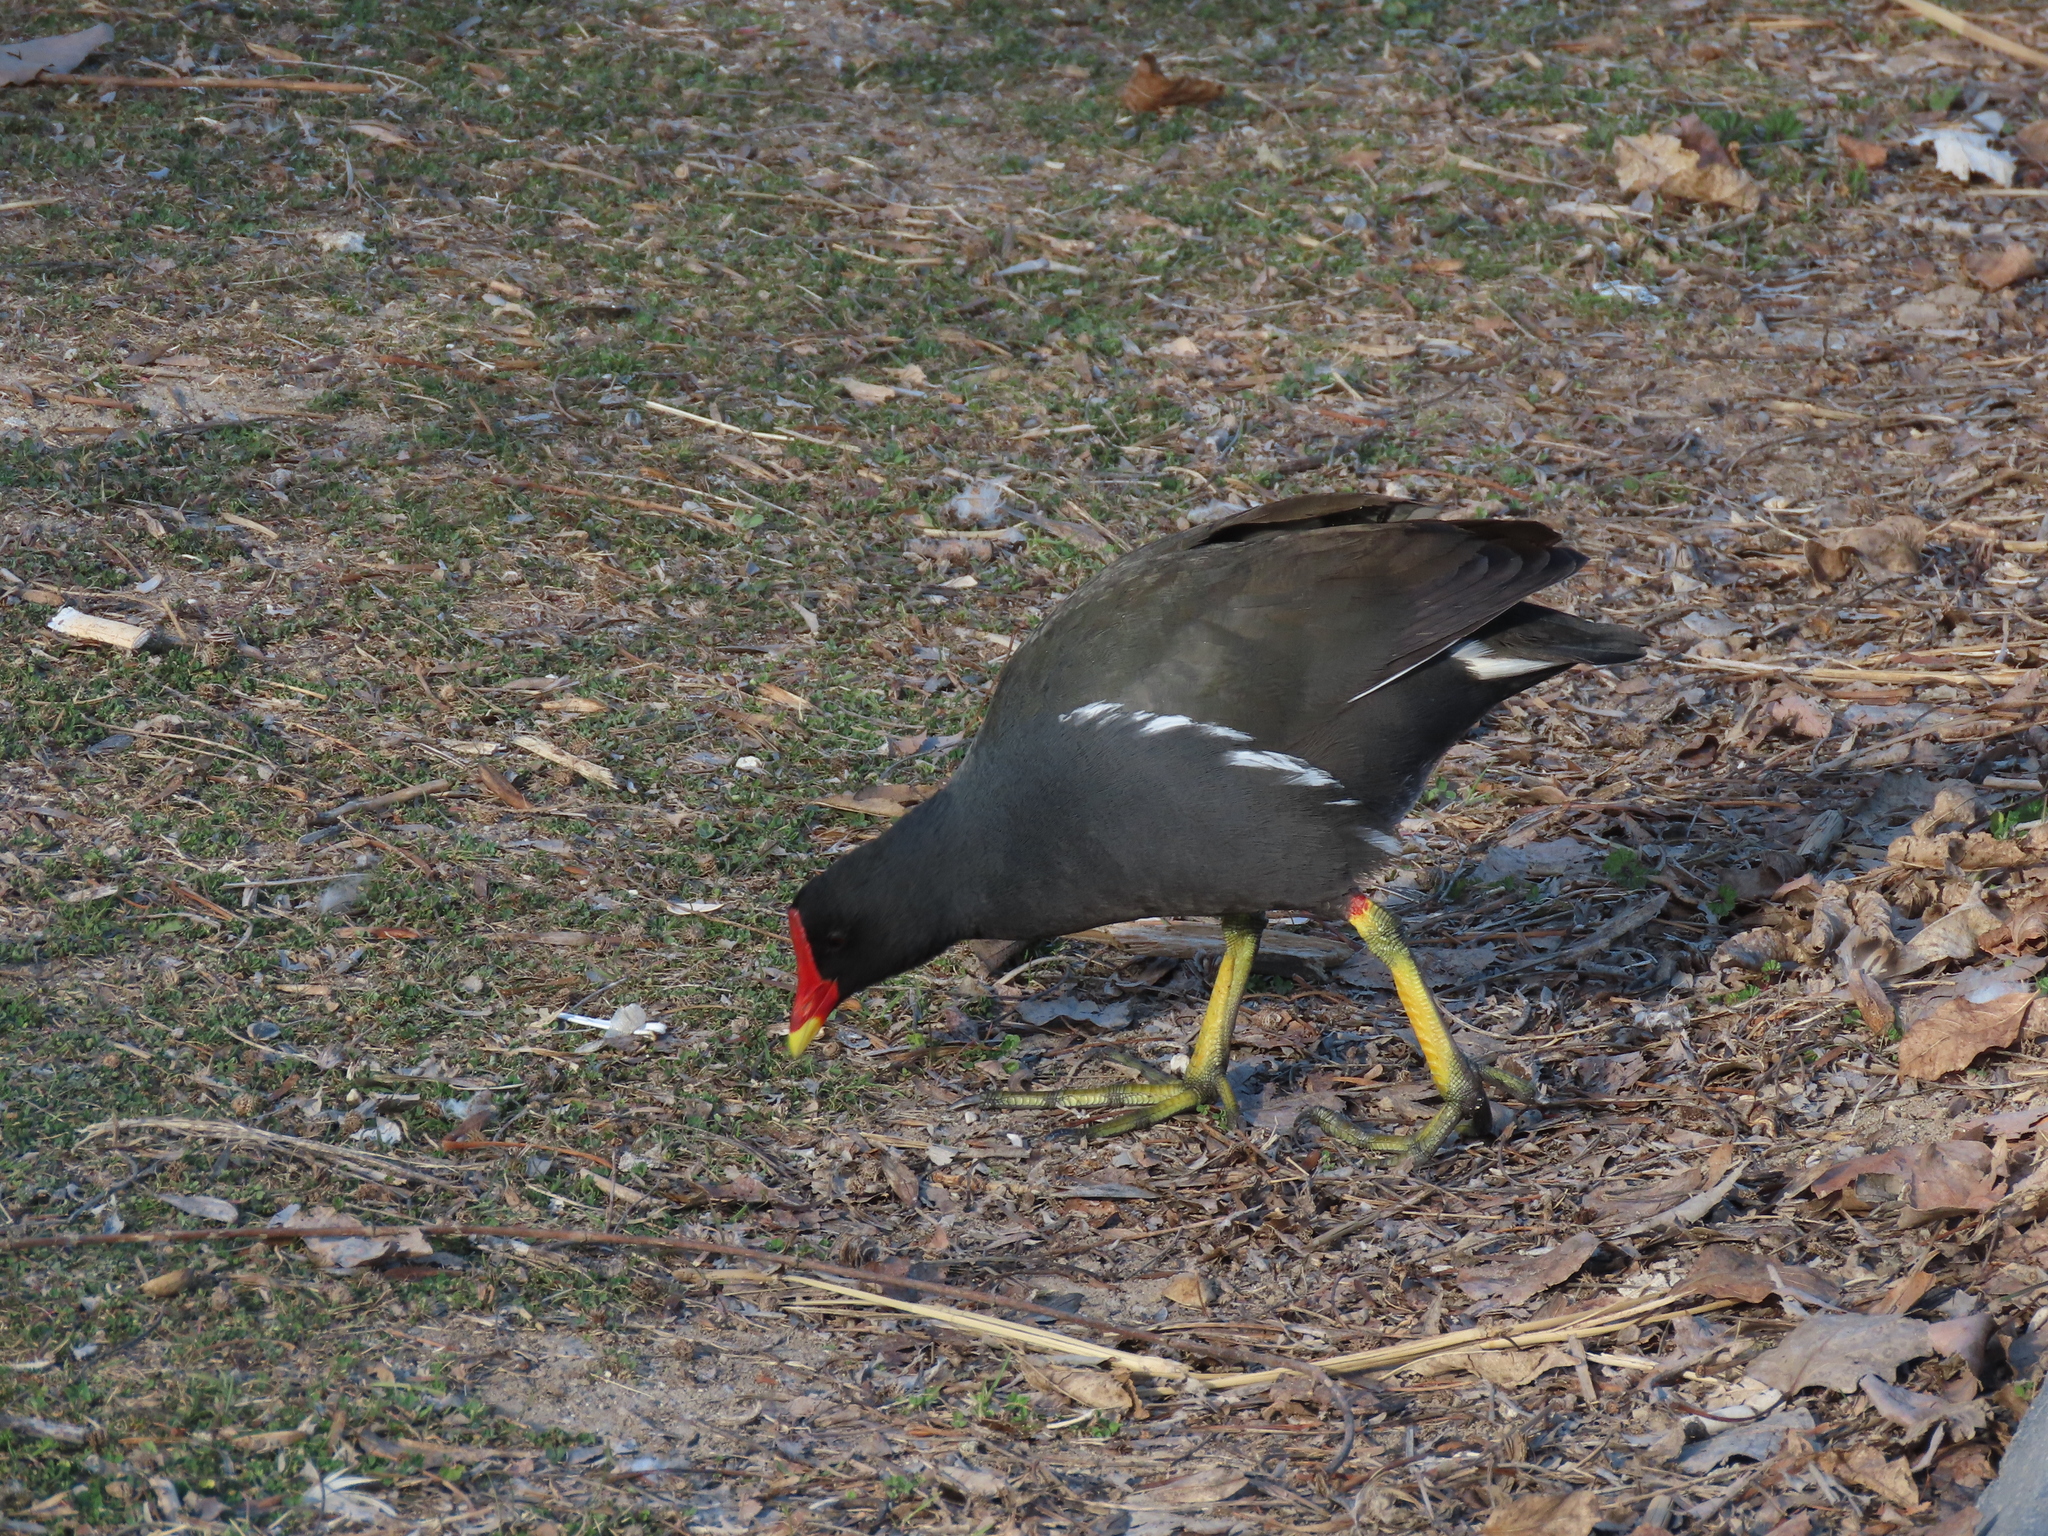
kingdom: Animalia
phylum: Chordata
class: Aves
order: Gruiformes
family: Rallidae
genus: Gallinula
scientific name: Gallinula chloropus
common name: Common moorhen
